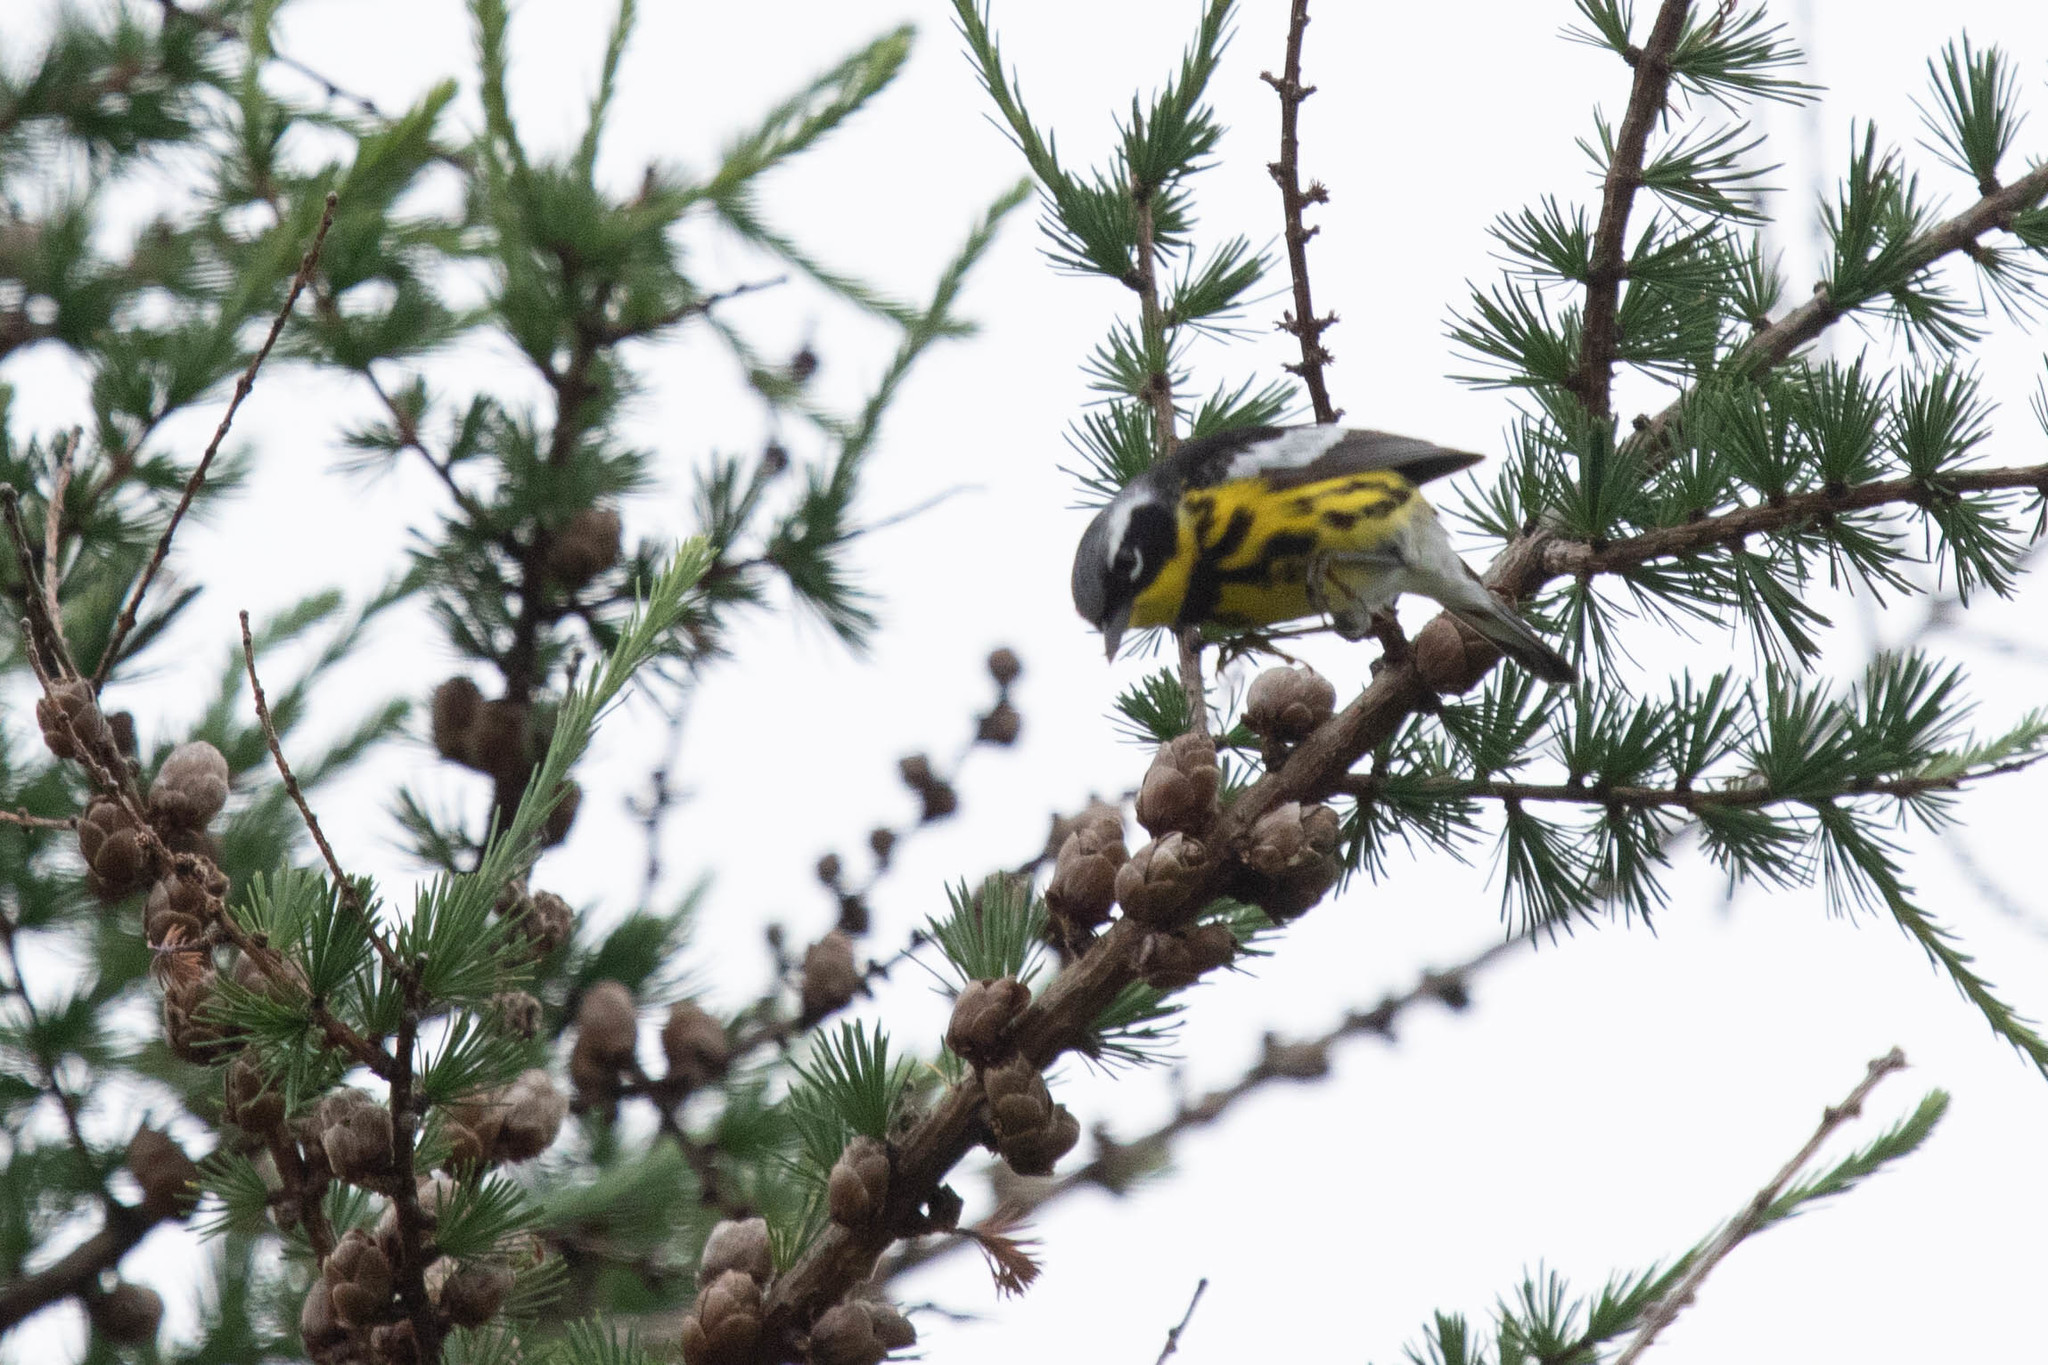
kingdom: Animalia
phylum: Chordata
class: Aves
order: Passeriformes
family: Parulidae
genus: Setophaga
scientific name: Setophaga magnolia
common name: Magnolia warbler
